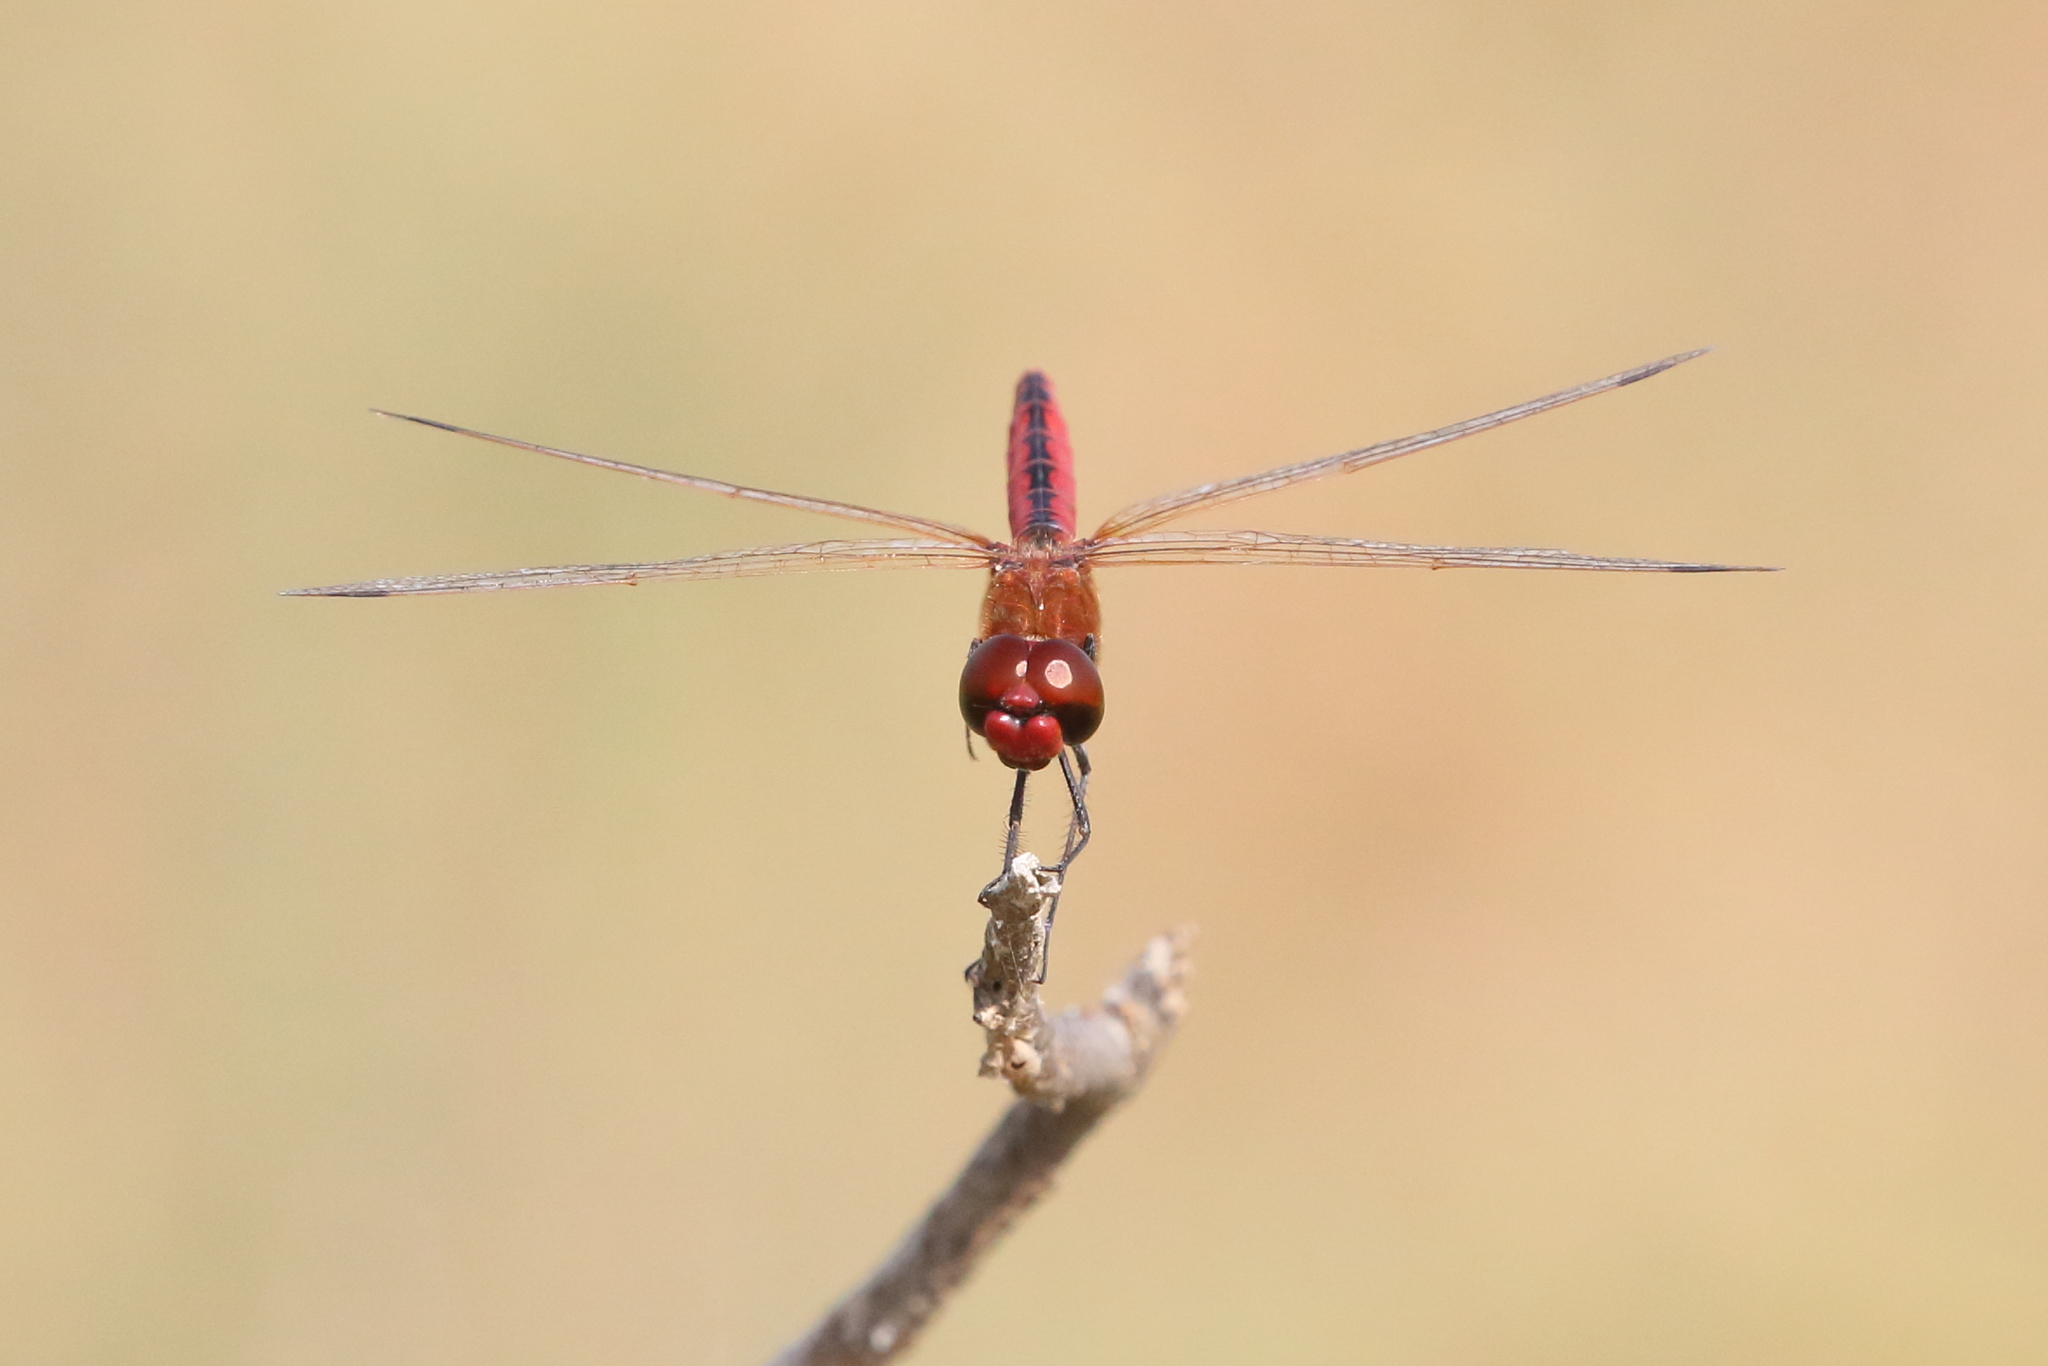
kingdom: Animalia
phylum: Arthropoda
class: Insecta
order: Odonata
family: Libellulidae
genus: Macrodiplax
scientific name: Macrodiplax cora
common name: Coastal glider
